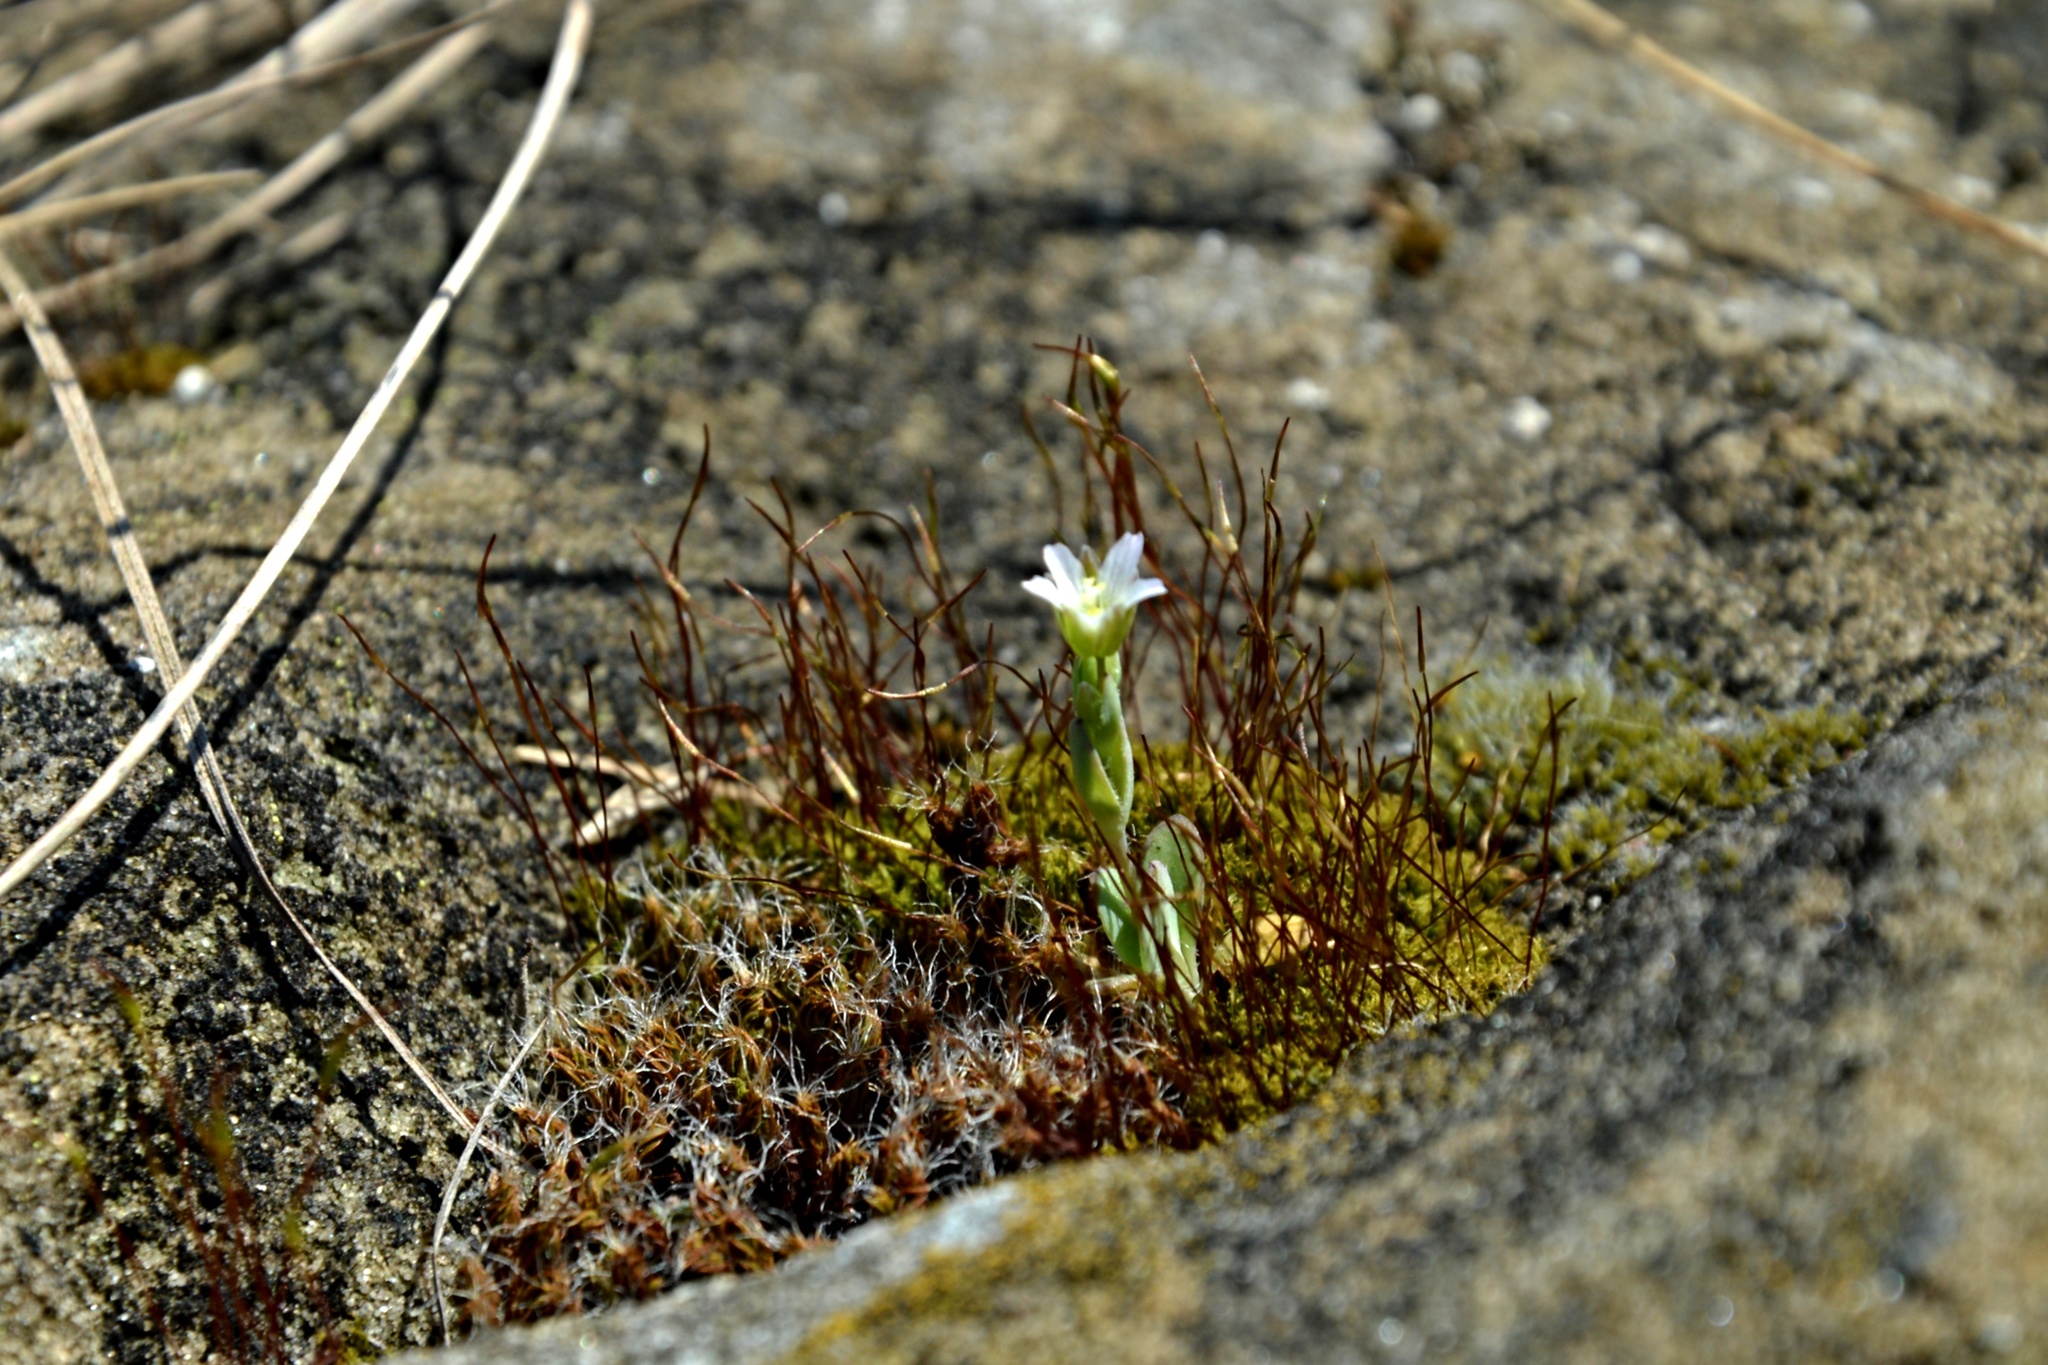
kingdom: Plantae
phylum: Tracheophyta
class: Magnoliopsida
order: Caryophyllales
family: Caryophyllaceae
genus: Holosteum
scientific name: Holosteum umbellatum
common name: Jagged chickweed
